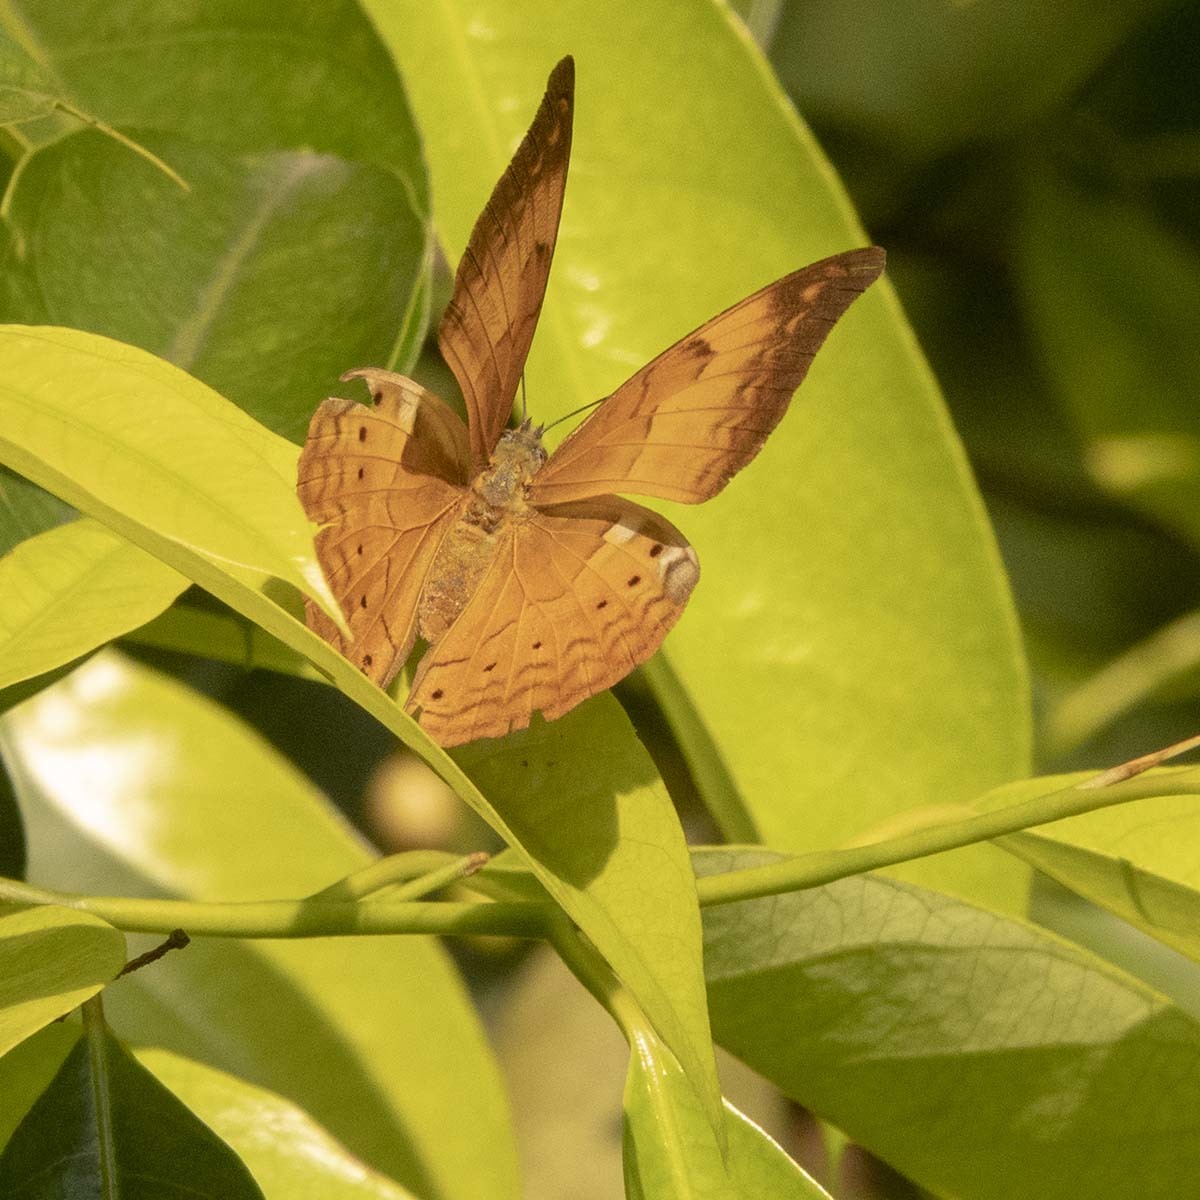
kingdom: Animalia
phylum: Arthropoda
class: Insecta
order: Lepidoptera
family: Nymphalidae
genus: Cirrochroa
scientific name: Cirrochroa thais
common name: Tamil yeoman
